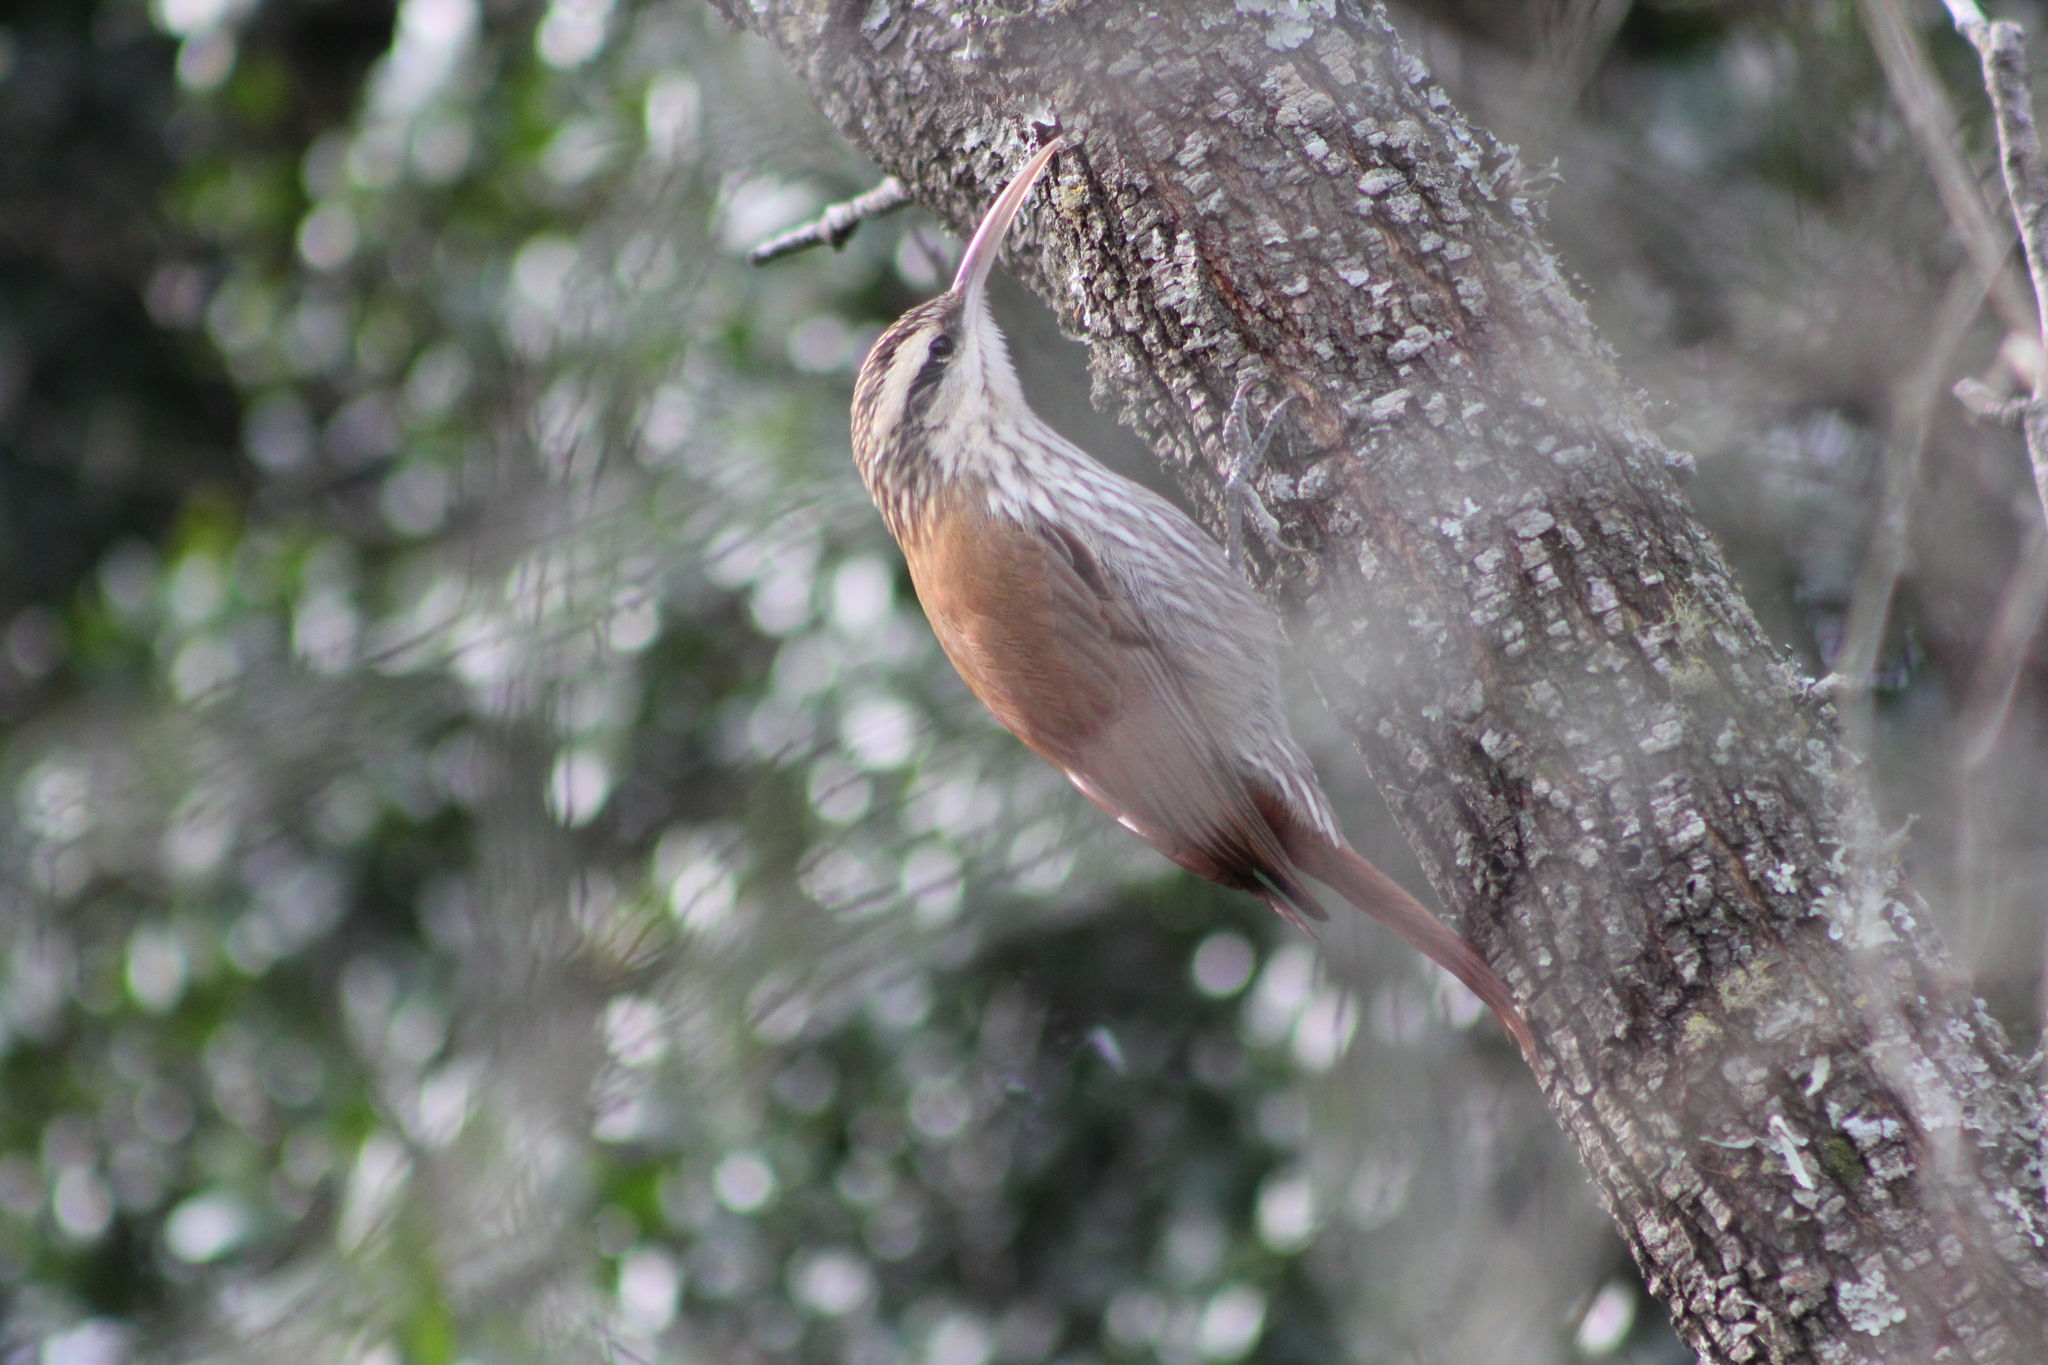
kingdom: Animalia
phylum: Chordata
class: Aves
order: Passeriformes
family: Furnariidae
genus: Lepidocolaptes
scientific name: Lepidocolaptes angustirostris
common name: Narrow-billed woodcreeper
